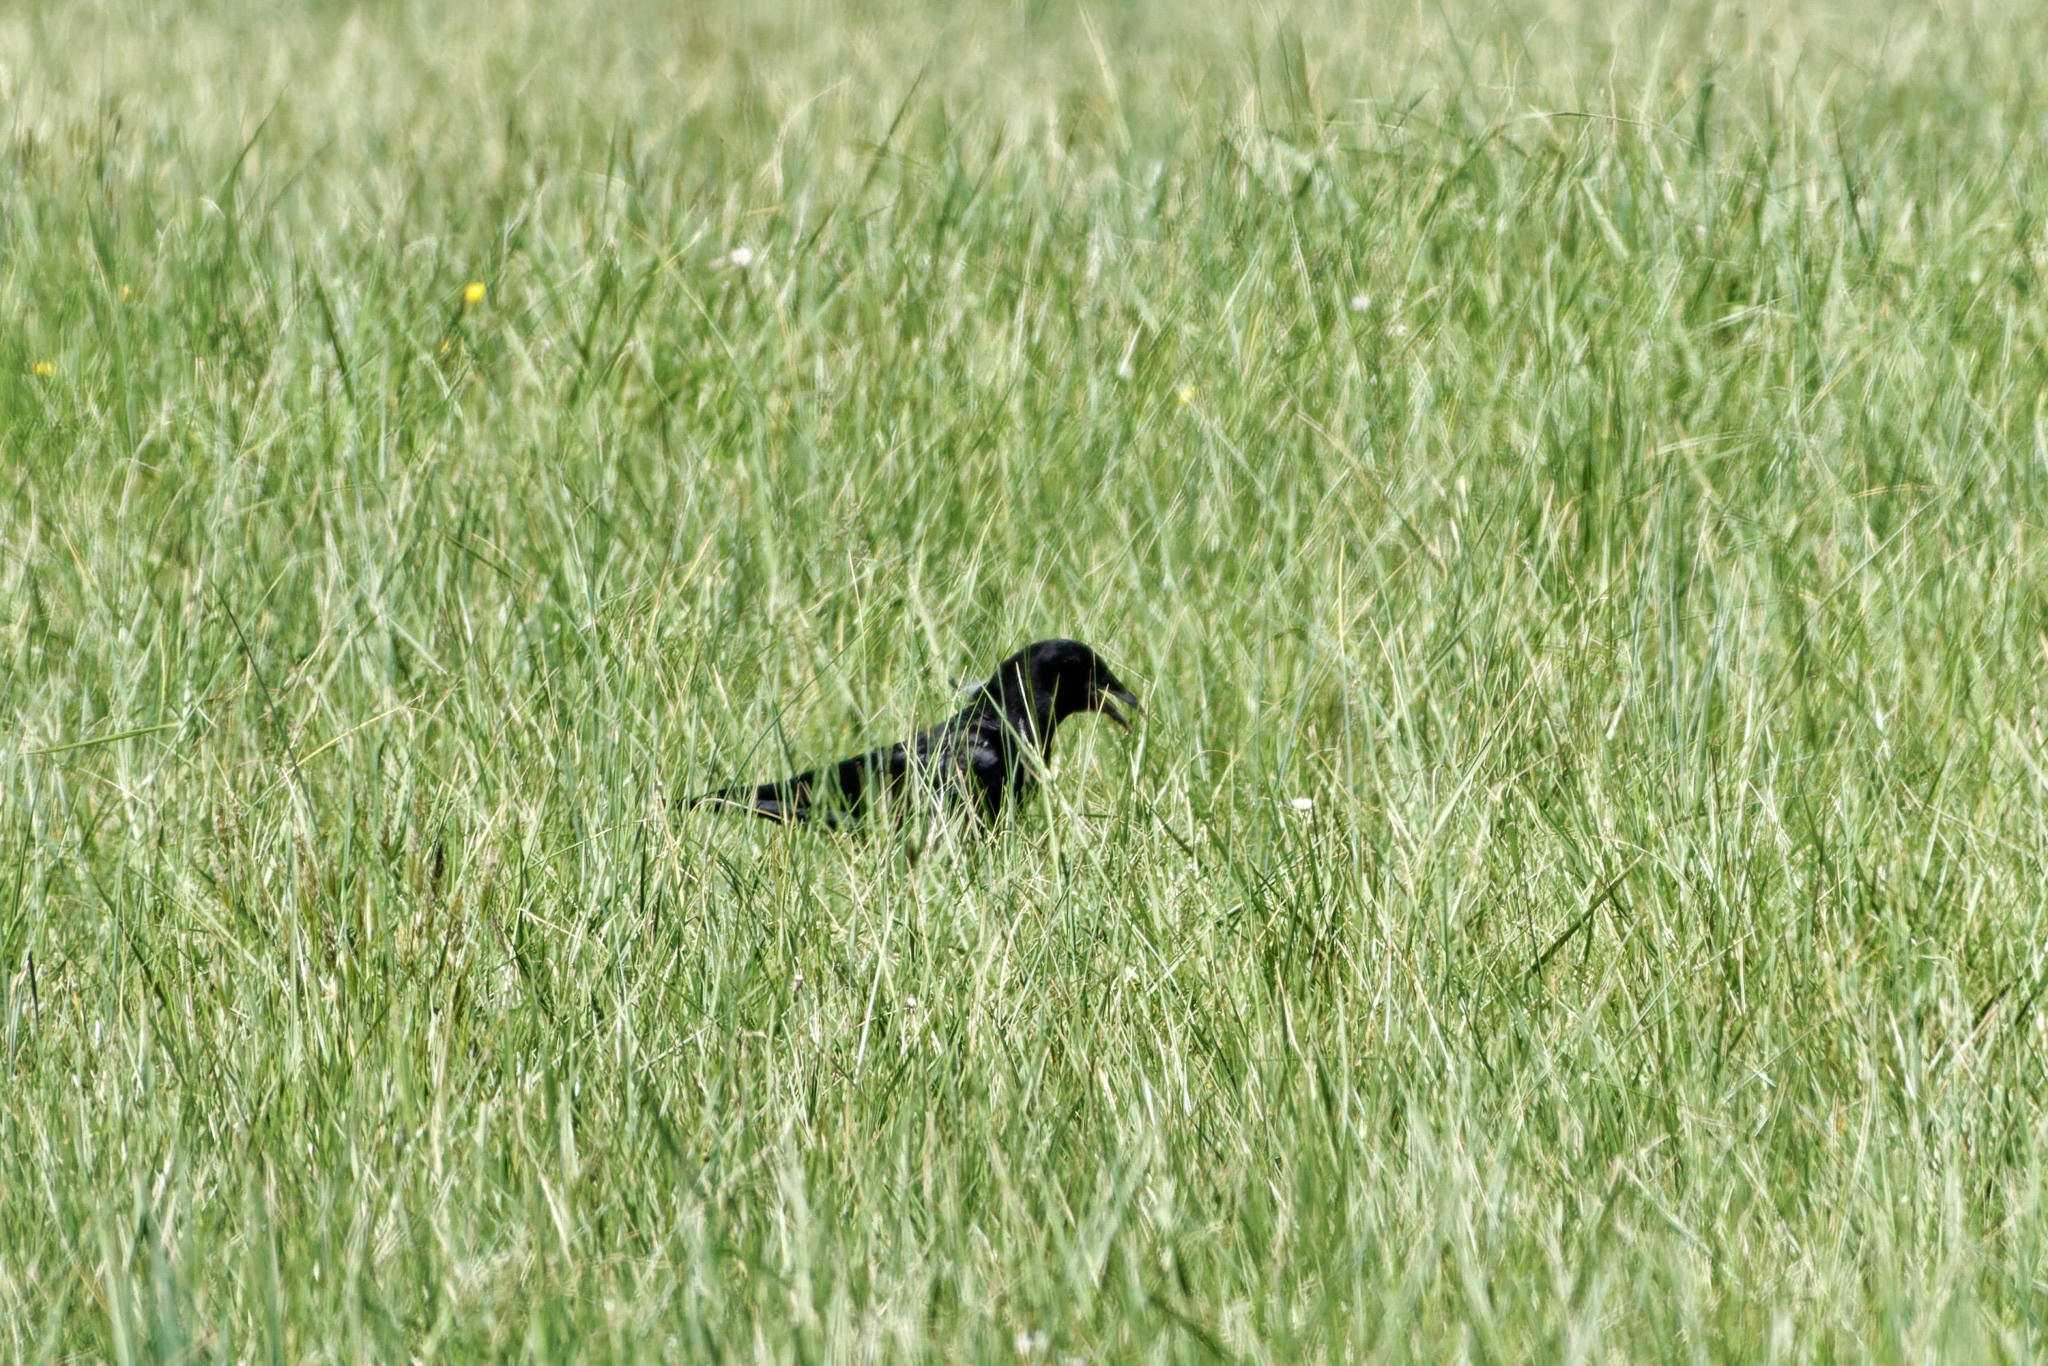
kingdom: Animalia
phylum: Chordata
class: Aves
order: Passeriformes
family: Corvidae
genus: Corvus
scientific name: Corvus brachyrhynchos
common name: American crow
